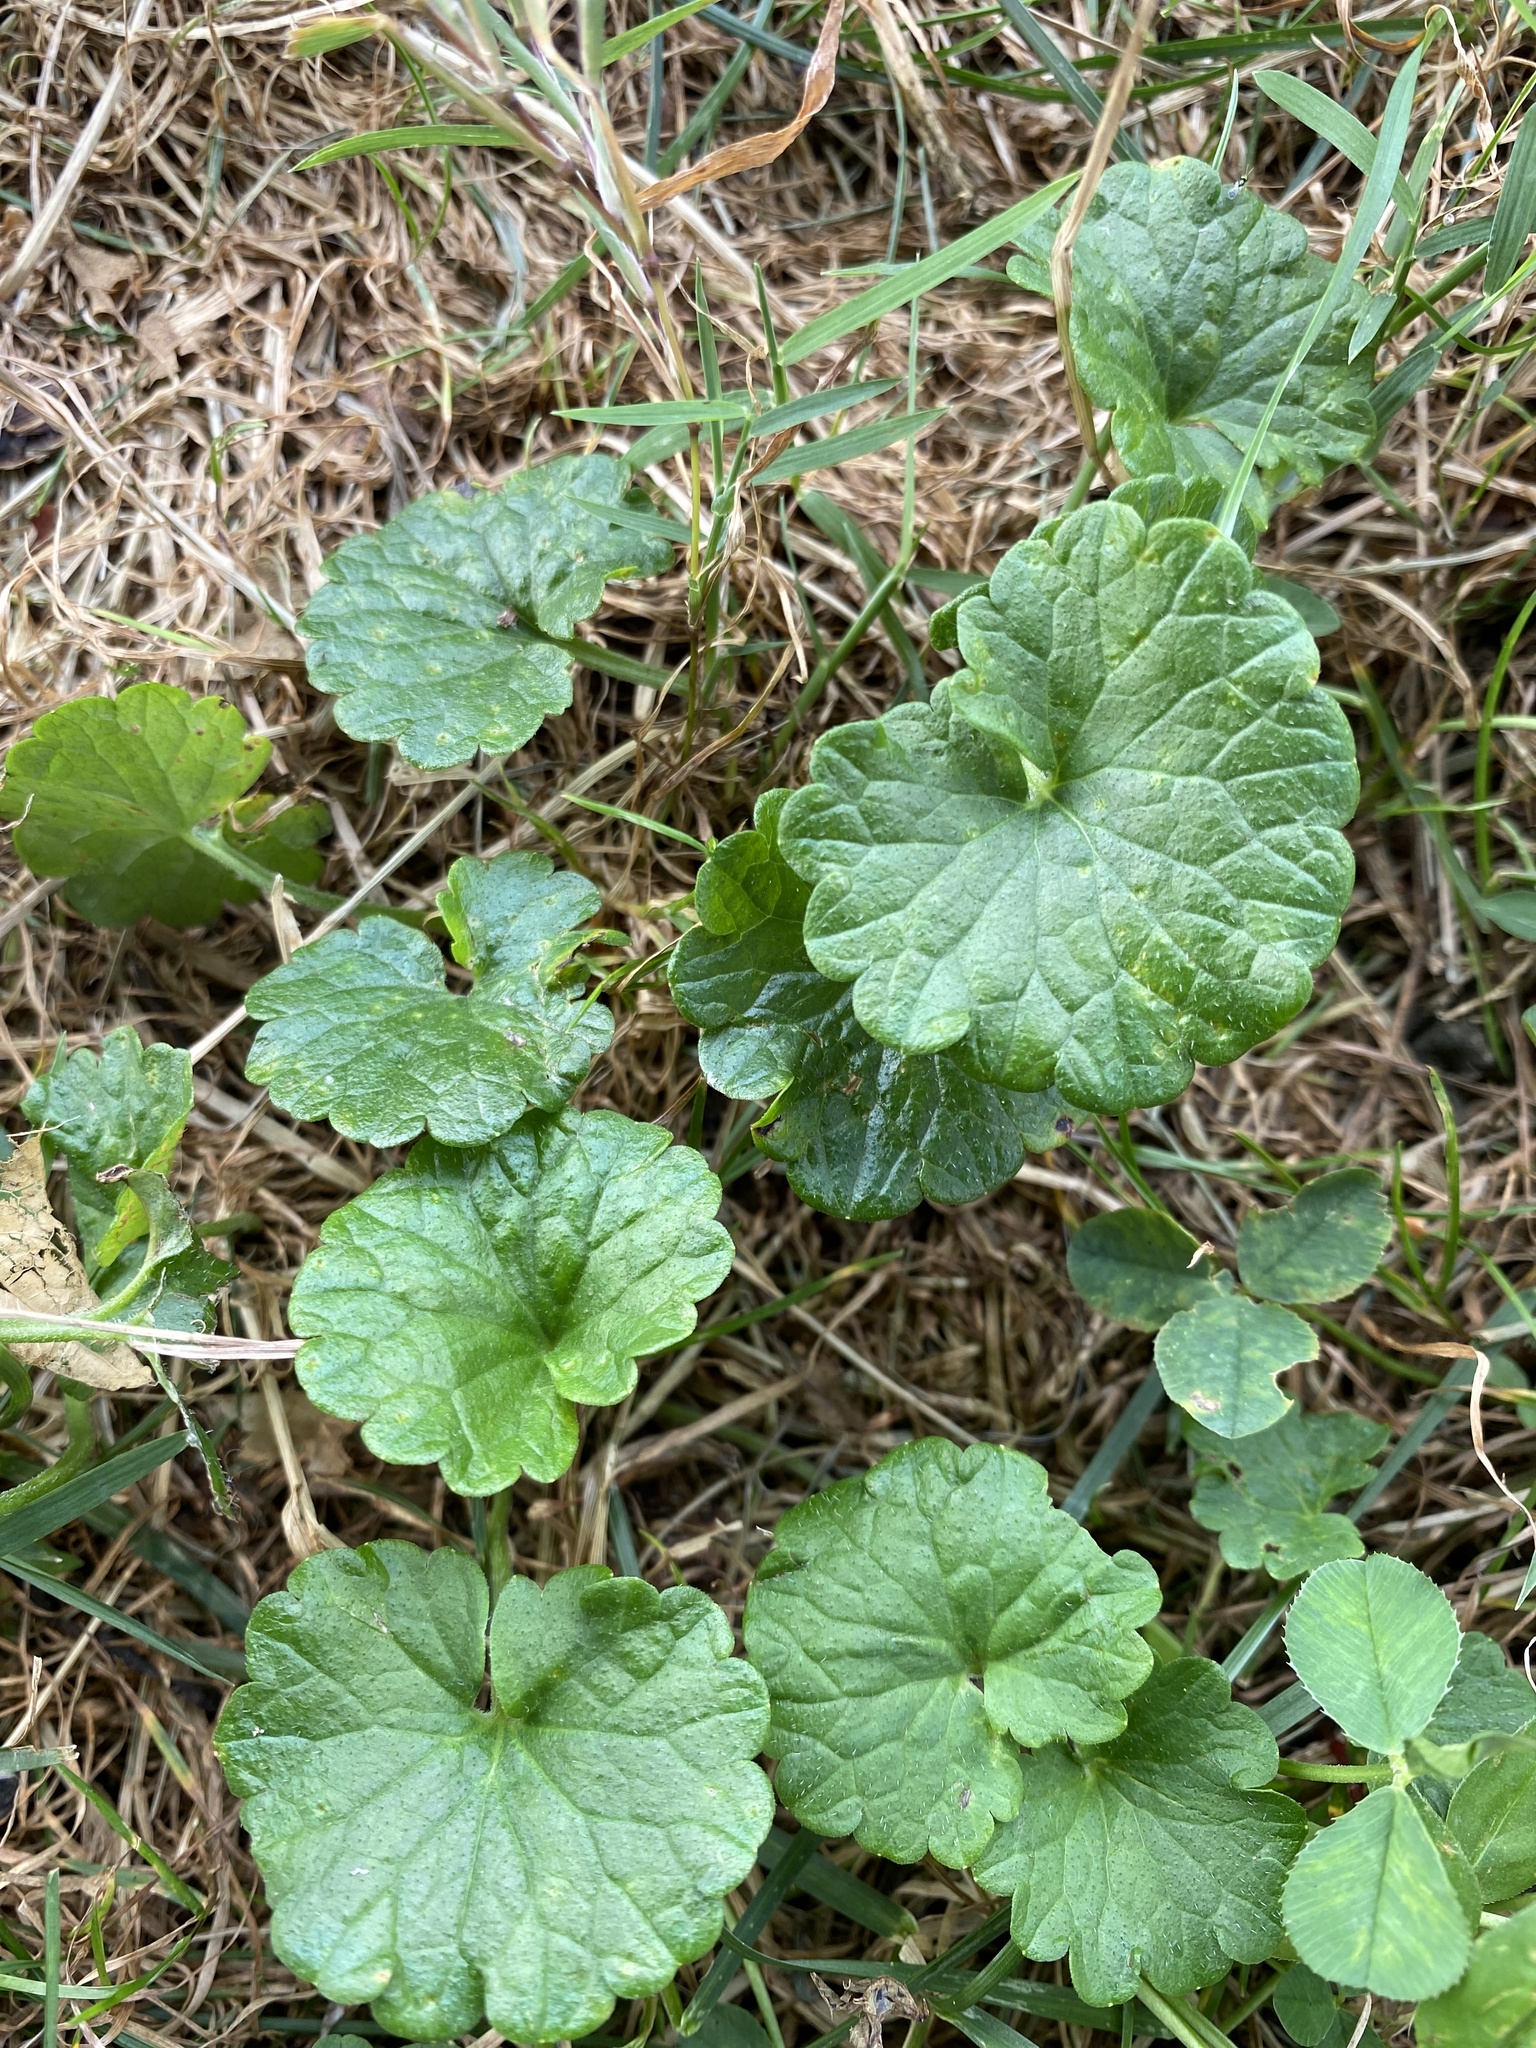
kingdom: Plantae
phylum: Tracheophyta
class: Magnoliopsida
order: Lamiales
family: Lamiaceae
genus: Glechoma
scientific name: Glechoma hederacea
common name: Ground ivy
